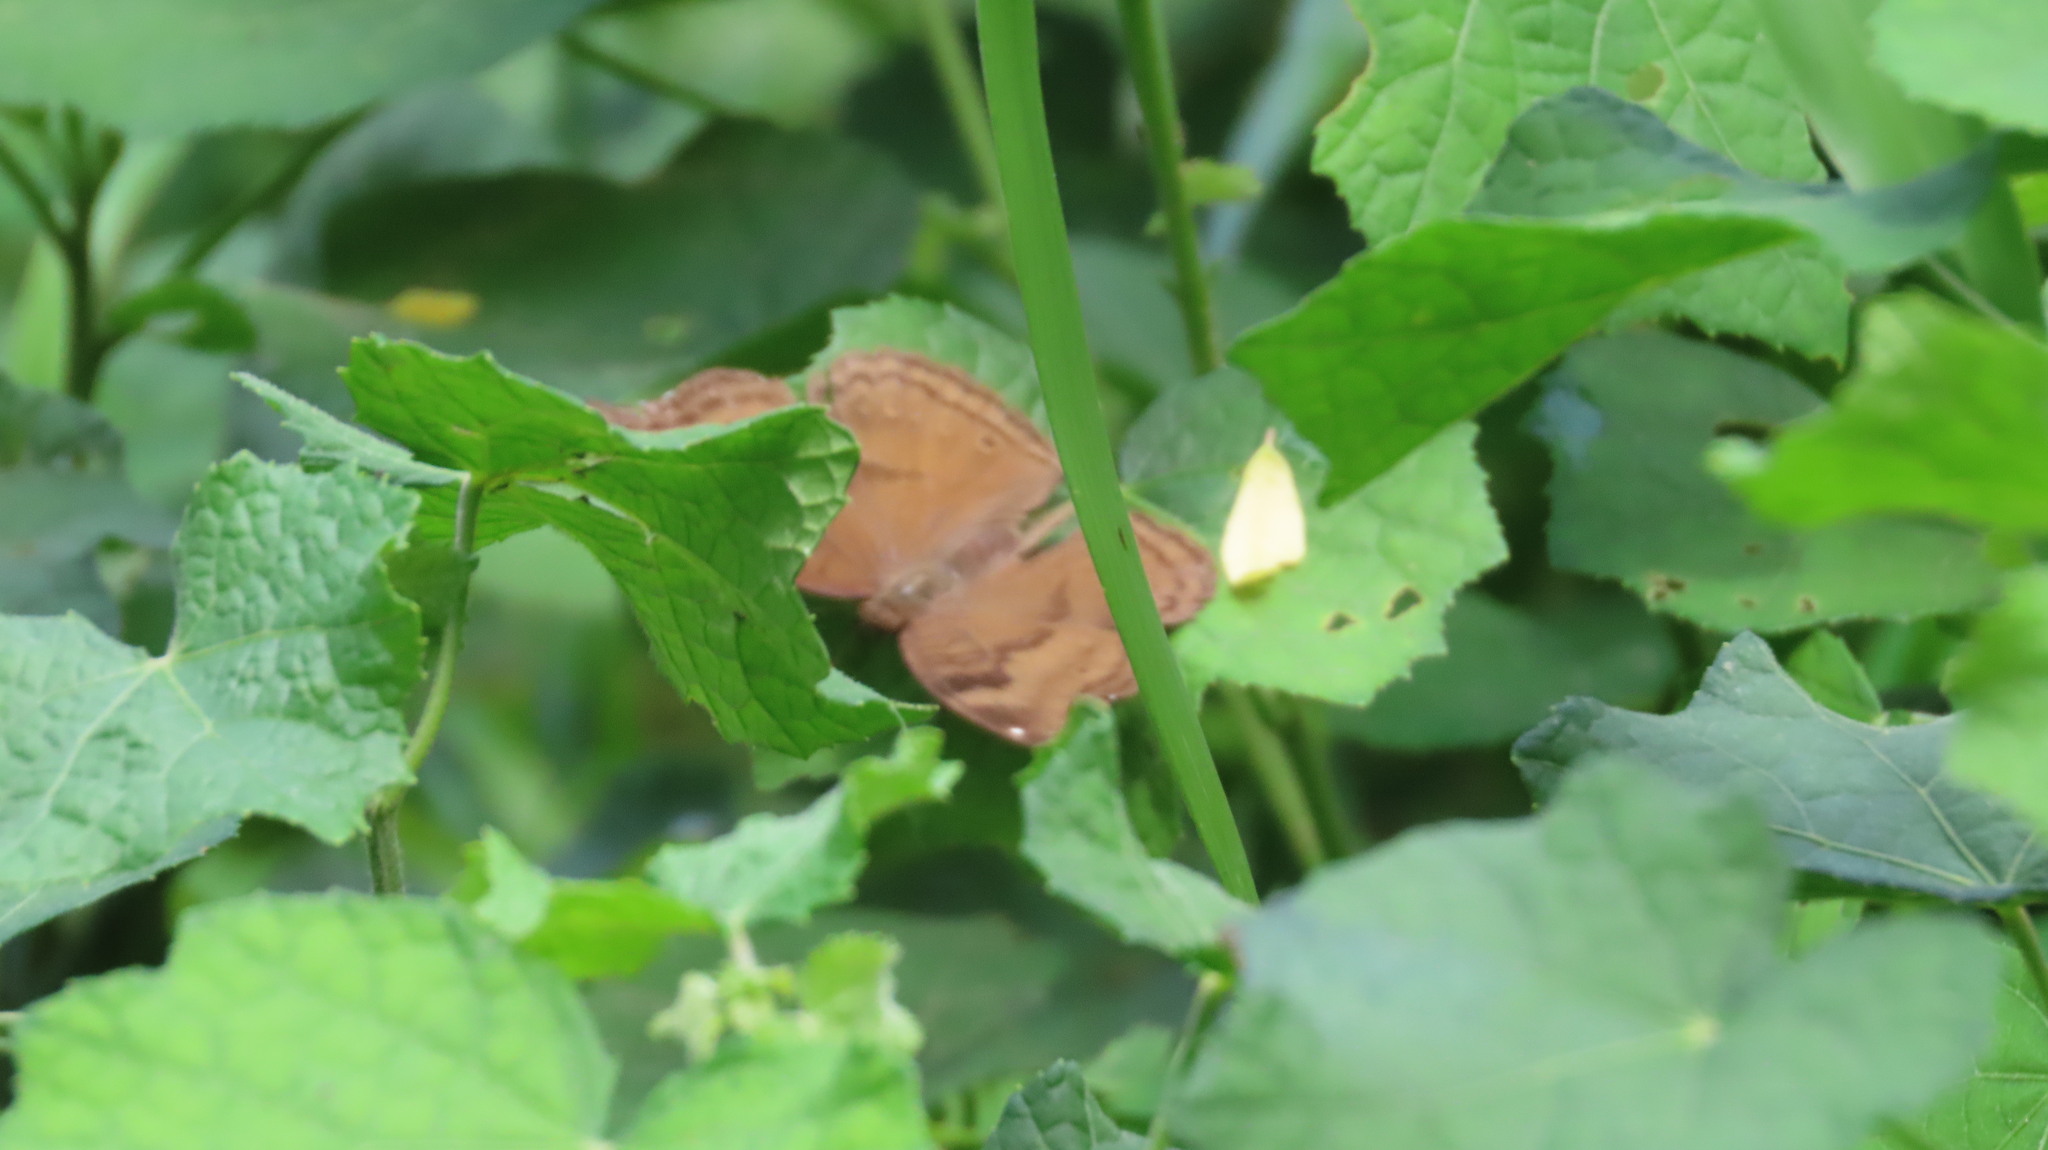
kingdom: Animalia
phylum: Arthropoda
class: Insecta
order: Lepidoptera
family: Nymphalidae
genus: Junonia
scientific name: Junonia iphita
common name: Chocolate pansy
